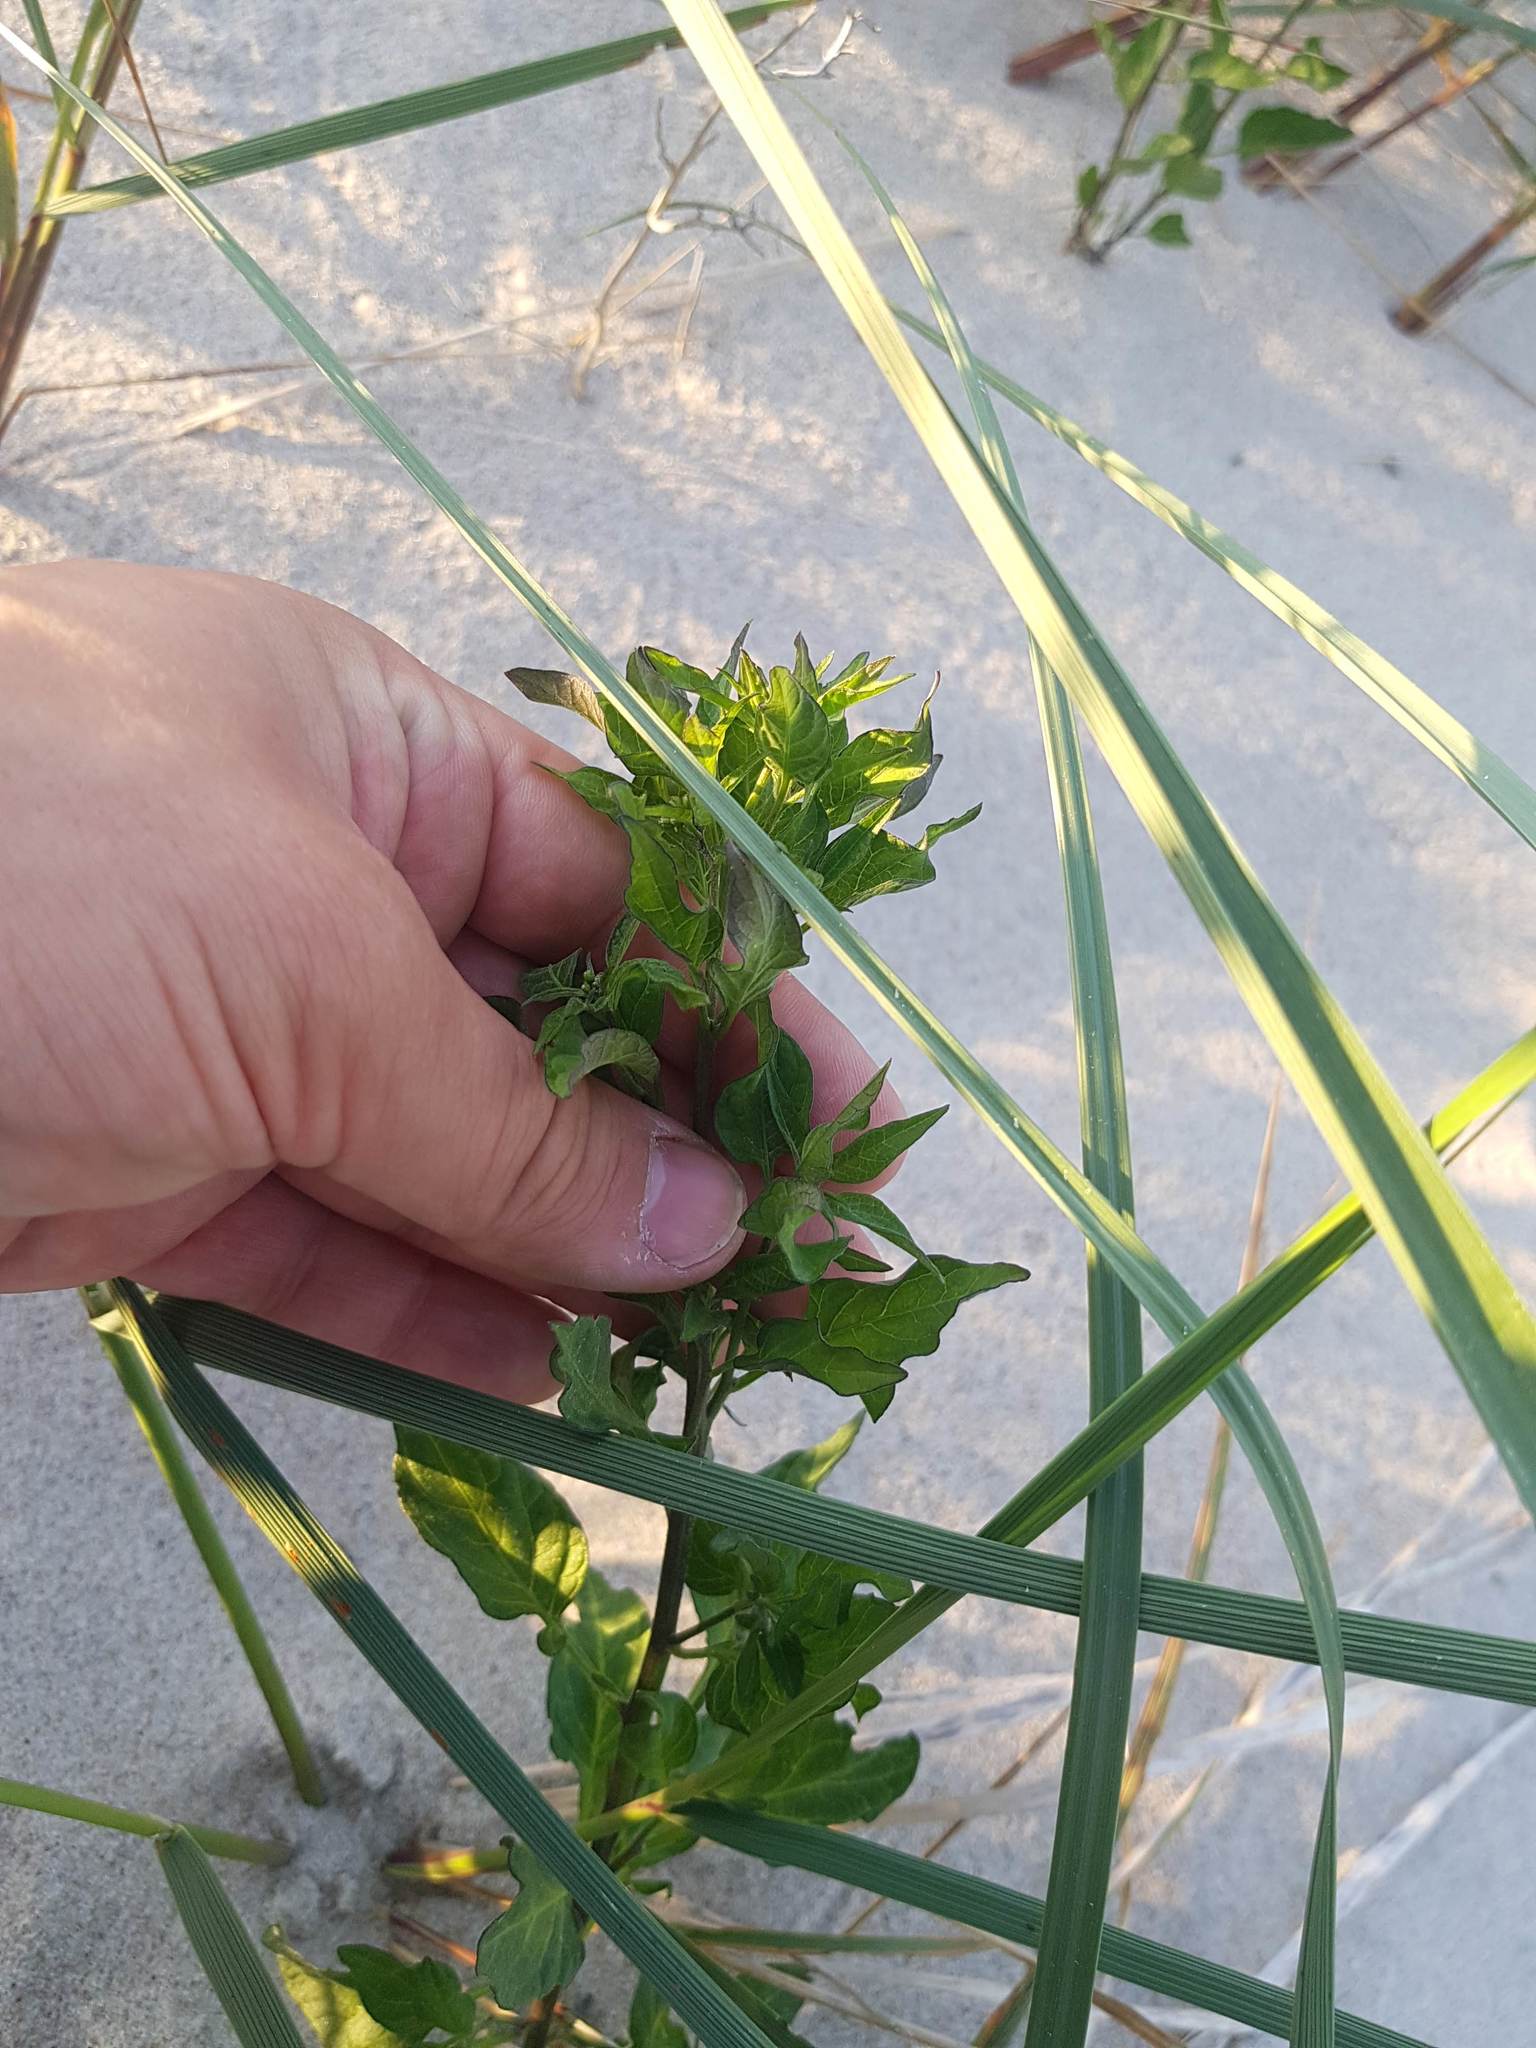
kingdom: Plantae
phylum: Tracheophyta
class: Magnoliopsida
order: Solanales
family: Solanaceae
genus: Solanum
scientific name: Solanum dulcamara
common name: Climbing nightshade
